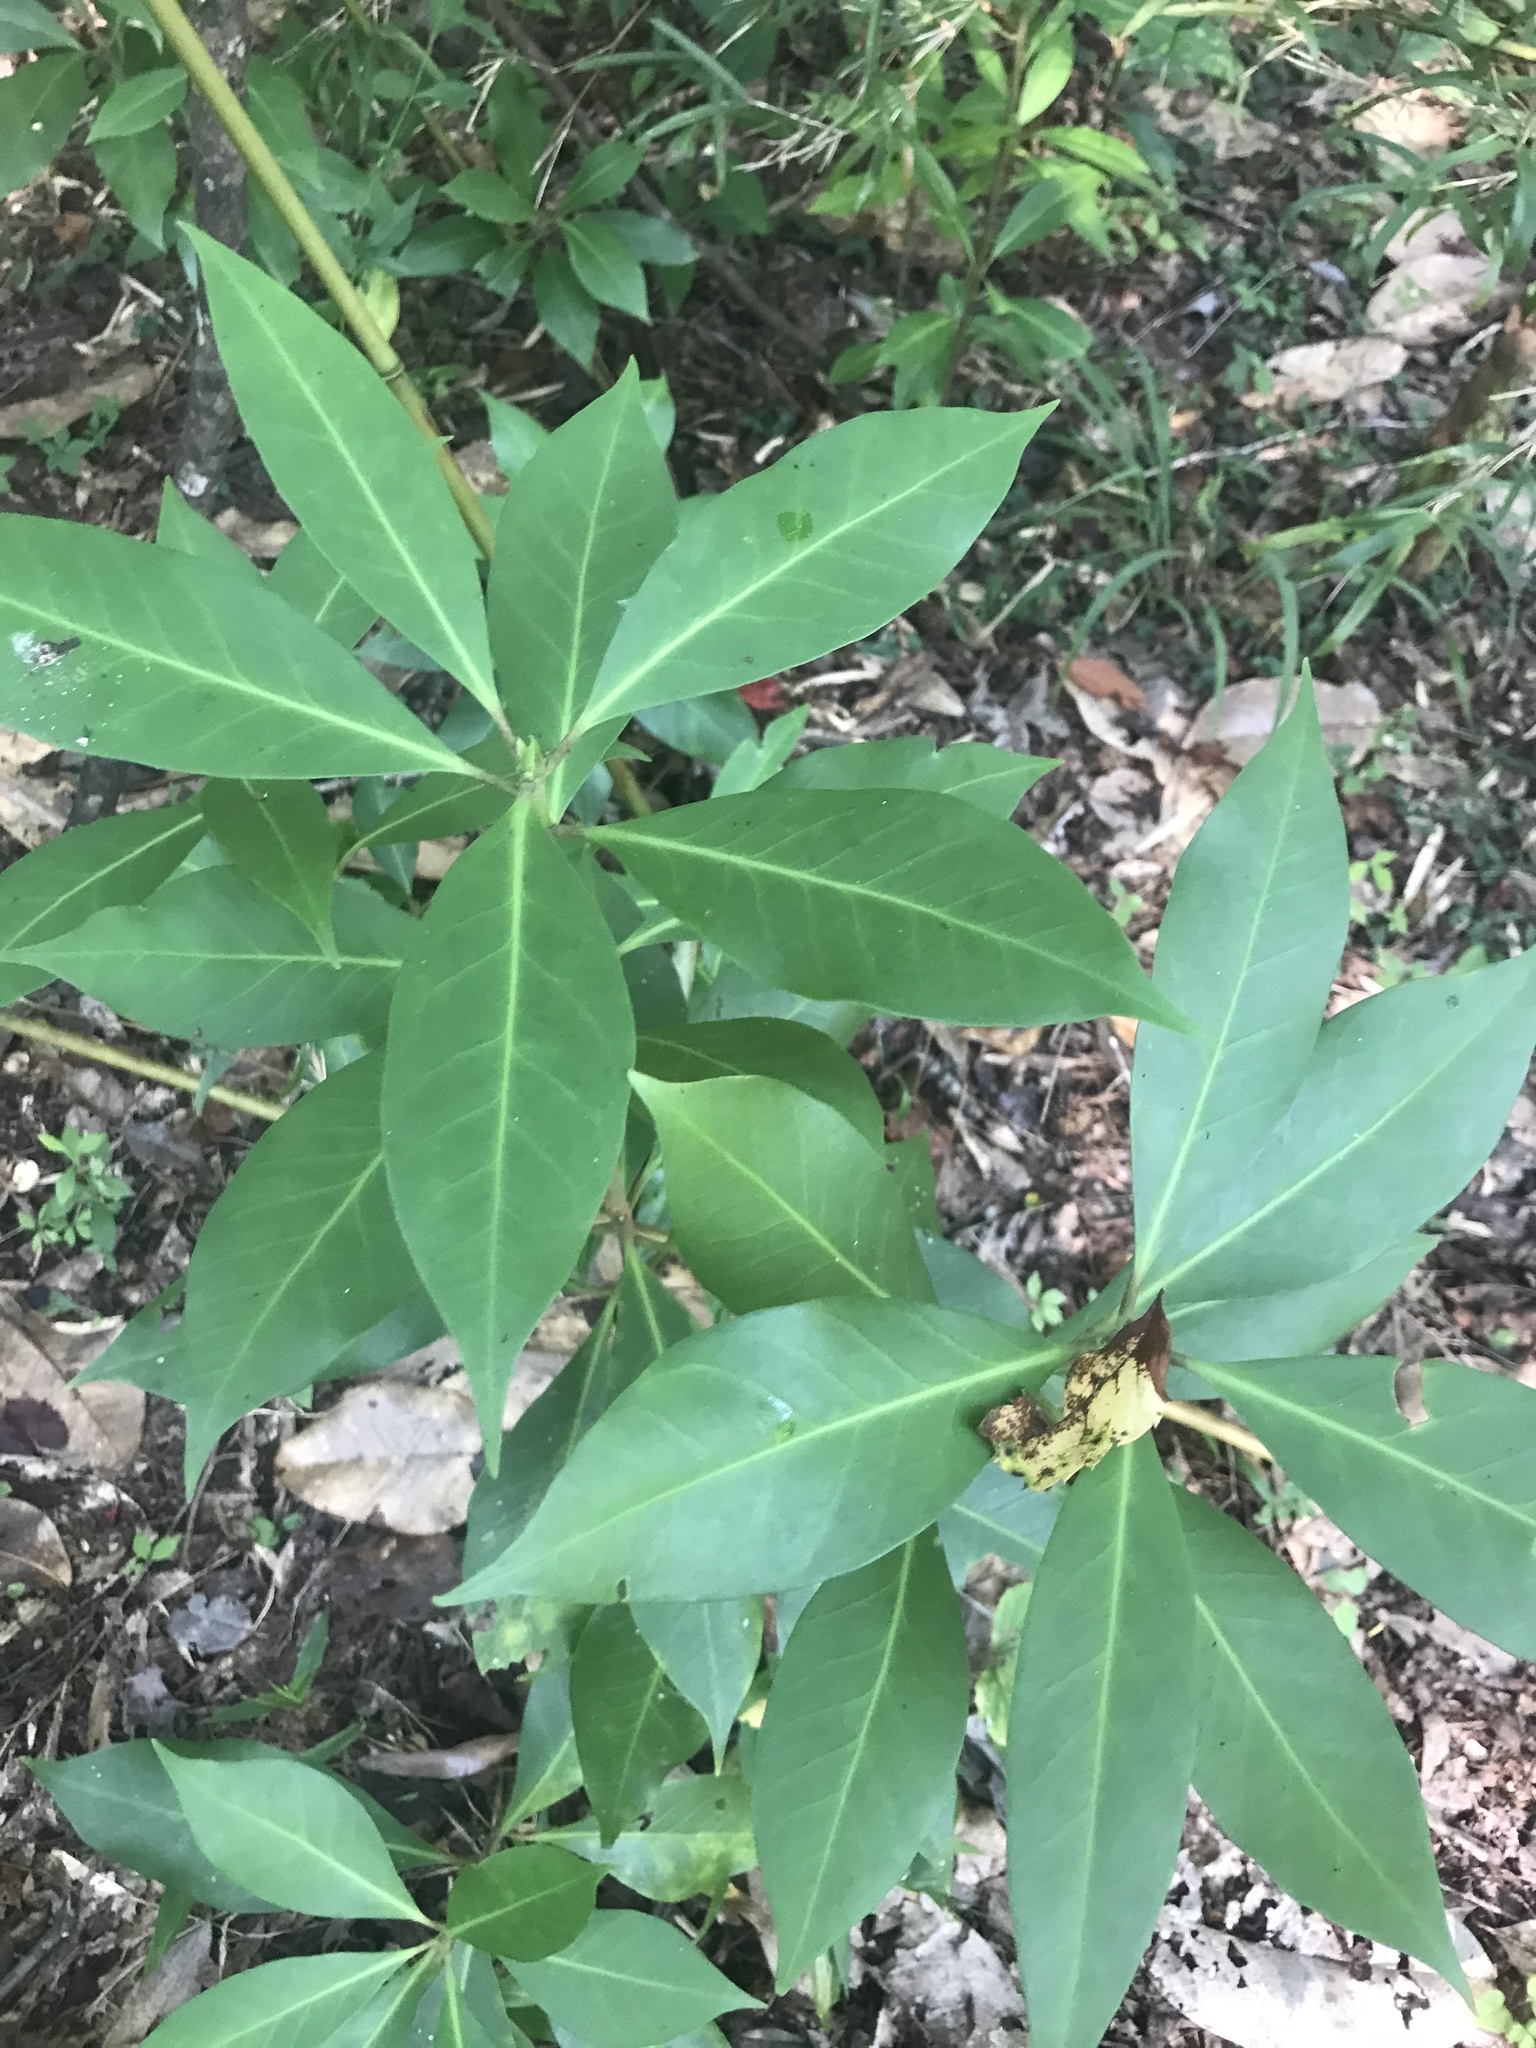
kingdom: Plantae
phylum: Tracheophyta
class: Magnoliopsida
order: Austrobaileyales
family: Schisandraceae
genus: Illicium
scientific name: Illicium floridanum
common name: Florida anisetree
